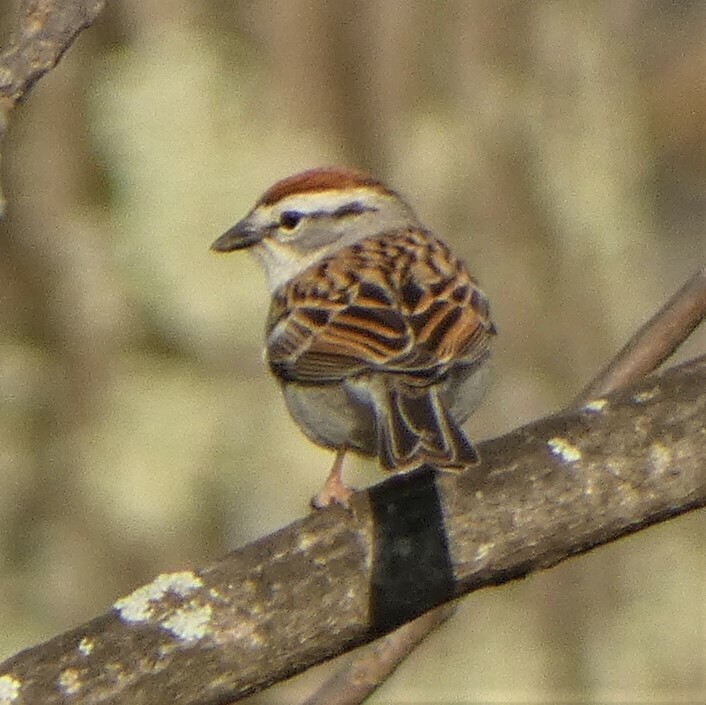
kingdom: Animalia
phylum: Chordata
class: Aves
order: Passeriformes
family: Passerellidae
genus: Spizella
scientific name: Spizella passerina
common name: Chipping sparrow
